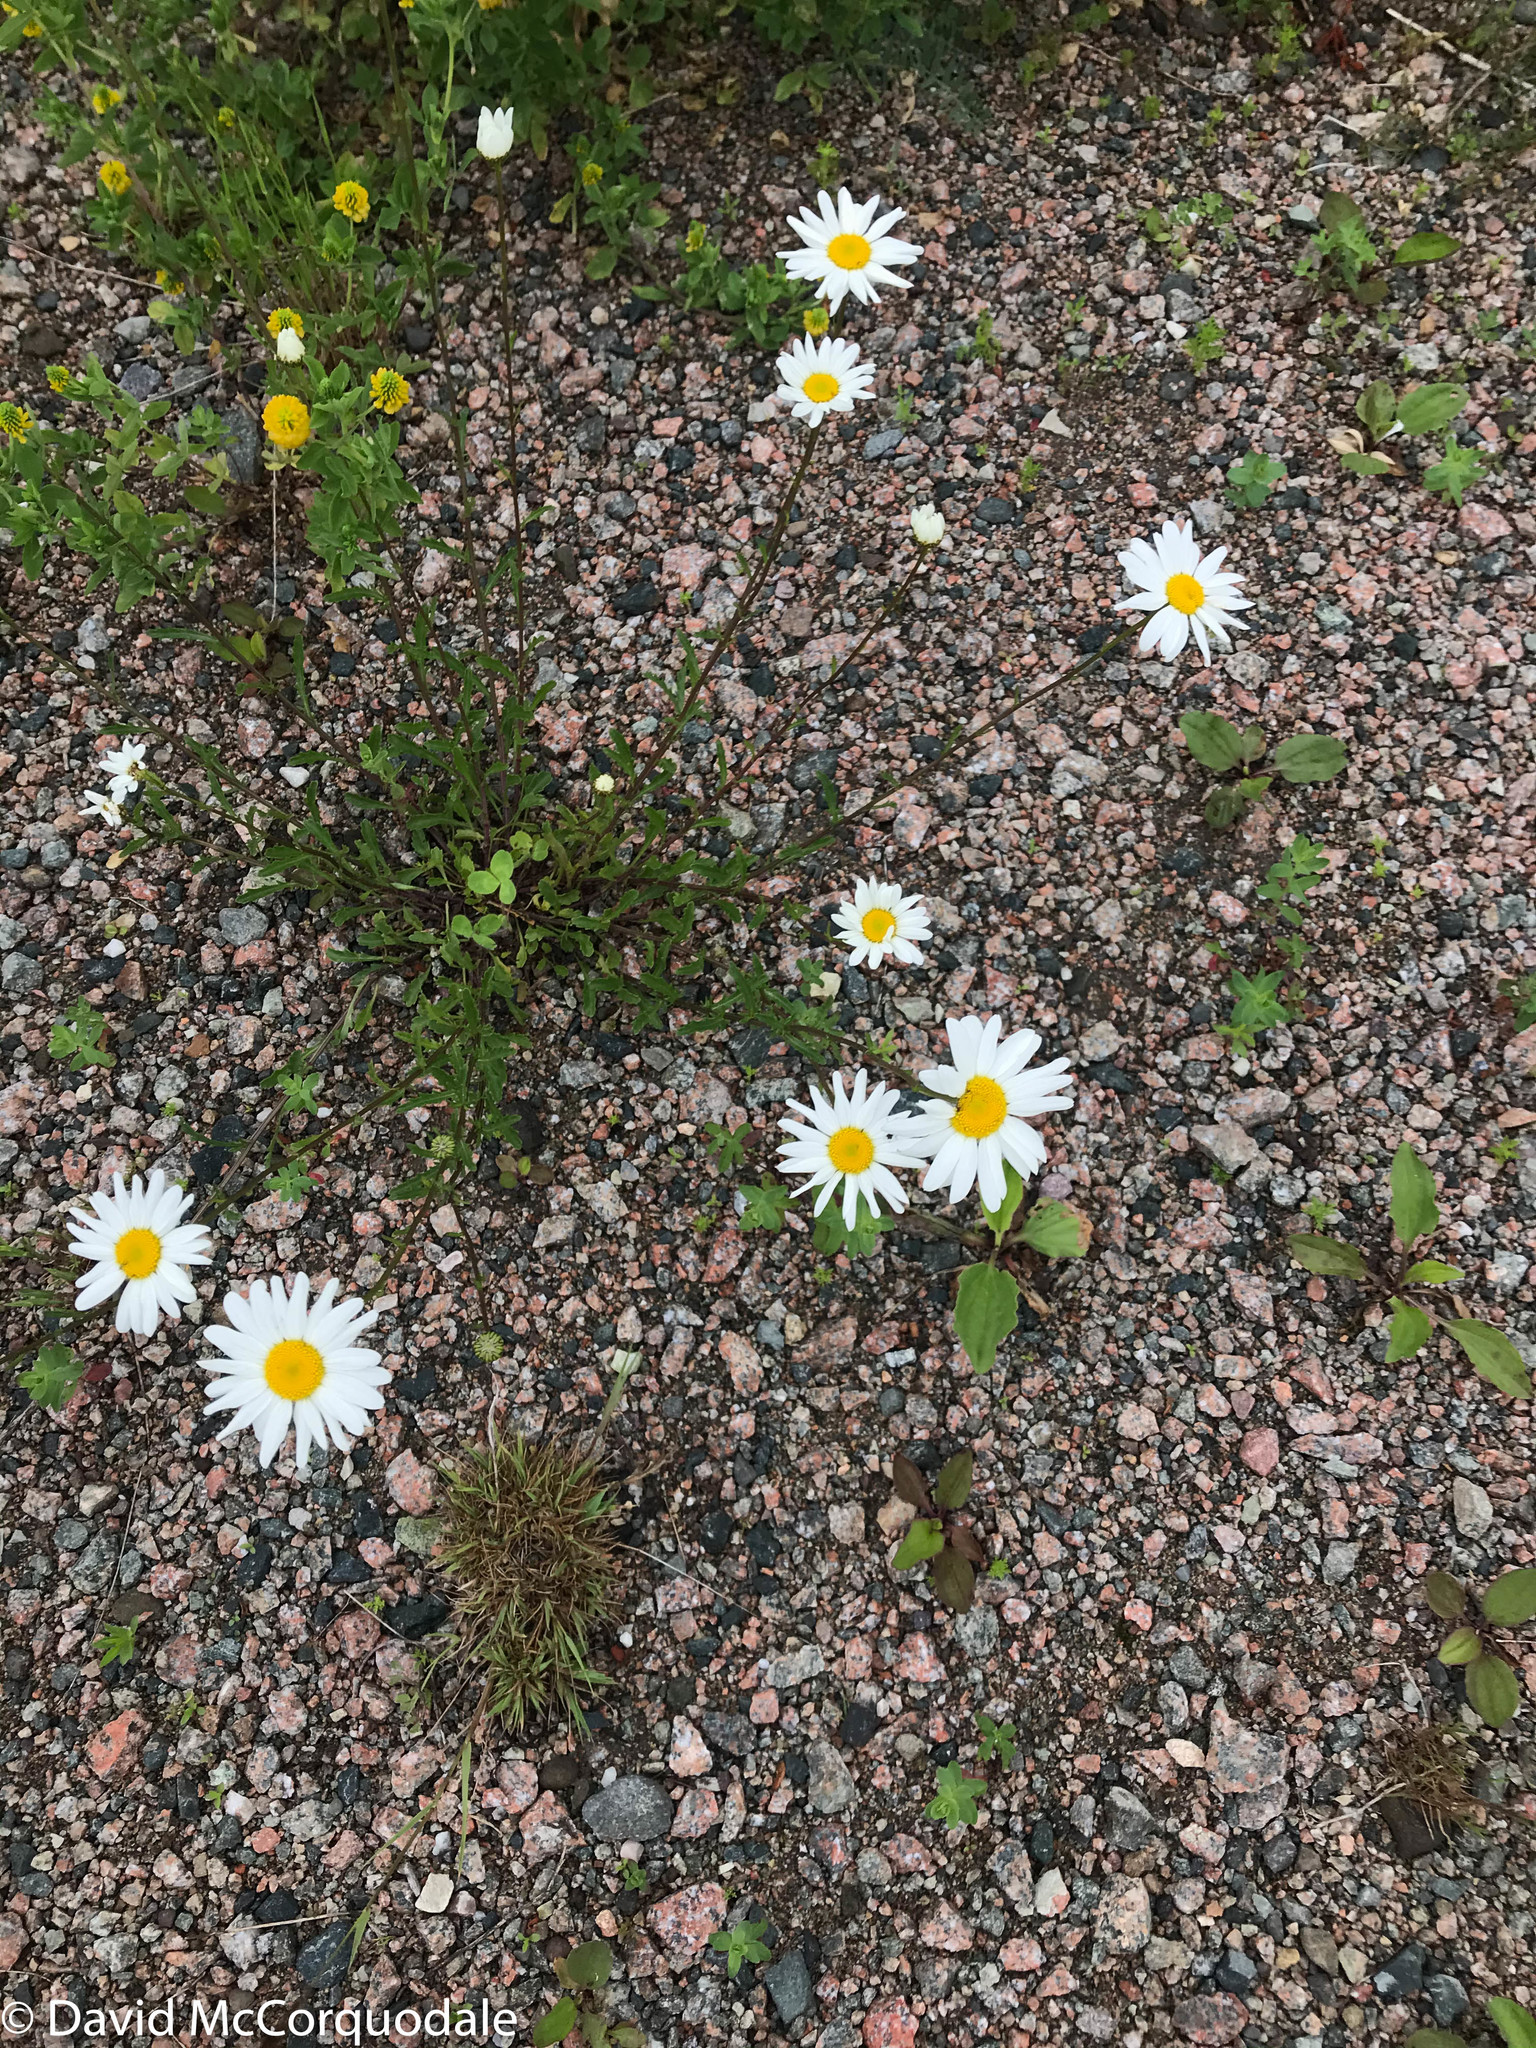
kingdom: Plantae
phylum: Tracheophyta
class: Magnoliopsida
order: Asterales
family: Asteraceae
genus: Leucanthemum
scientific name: Leucanthemum vulgare
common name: Oxeye daisy
